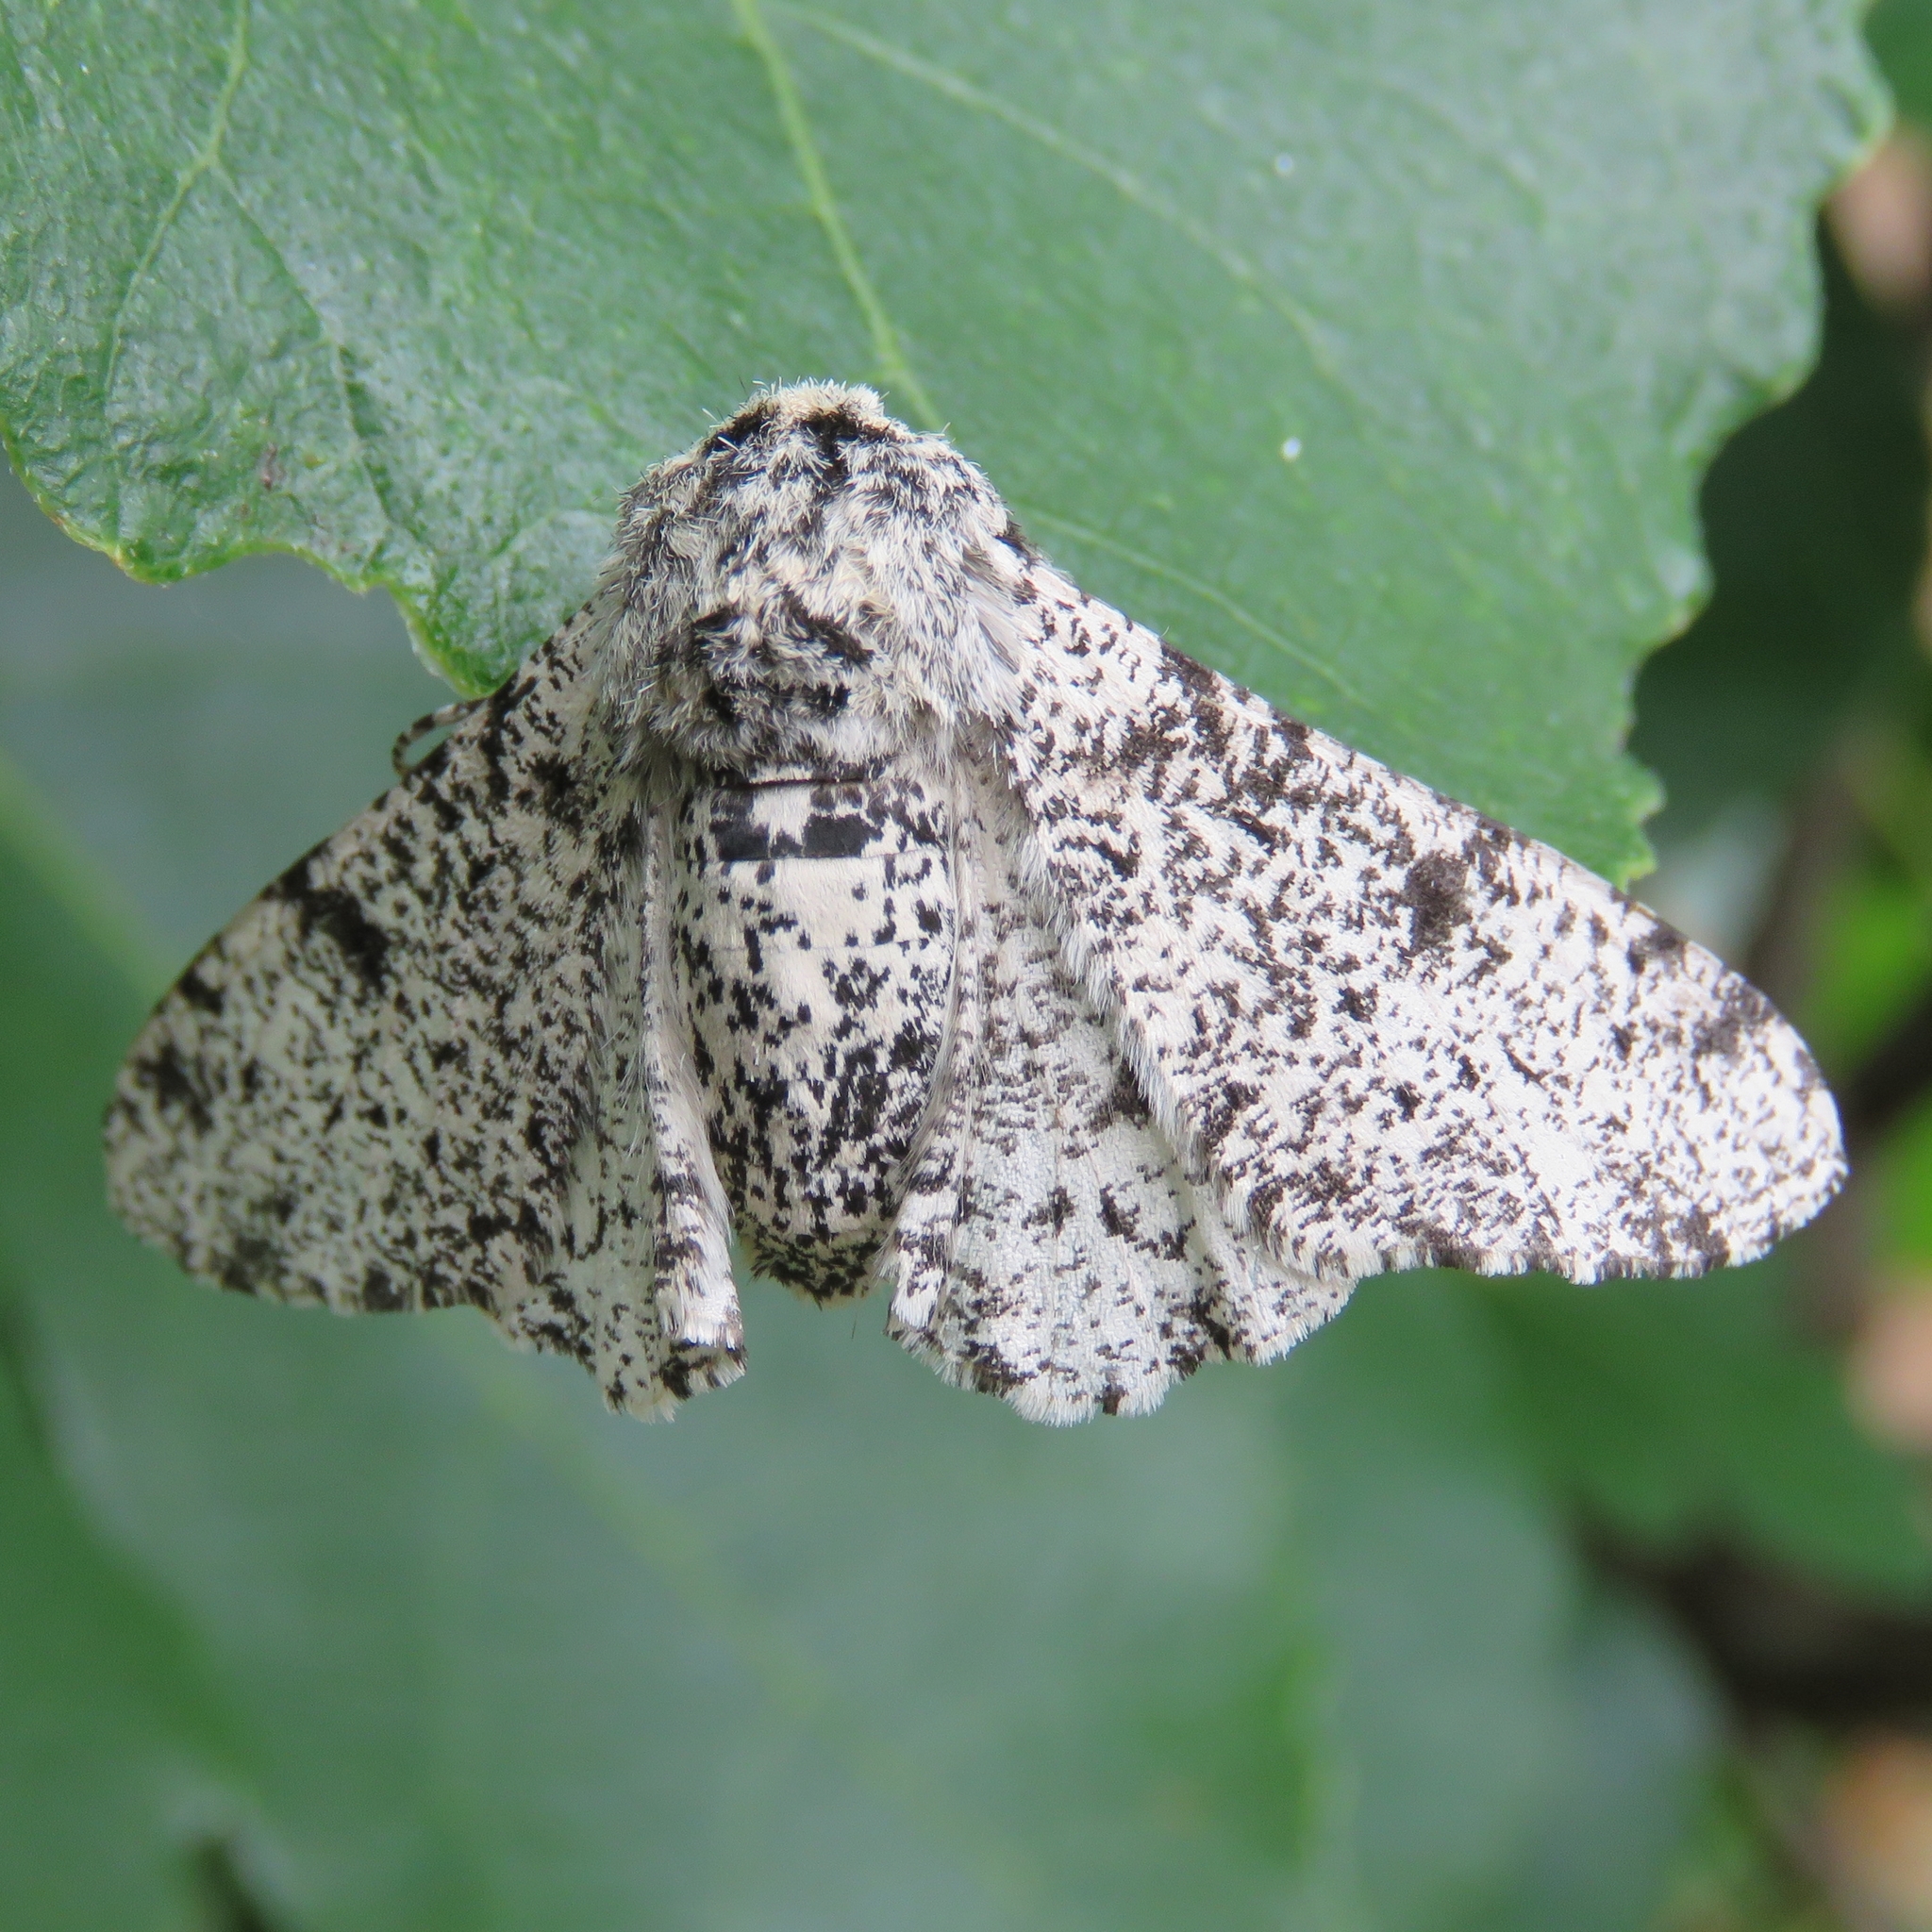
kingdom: Animalia
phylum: Arthropoda
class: Insecta
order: Lepidoptera
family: Geometridae
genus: Biston
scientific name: Biston betularia
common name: Peppered moth
